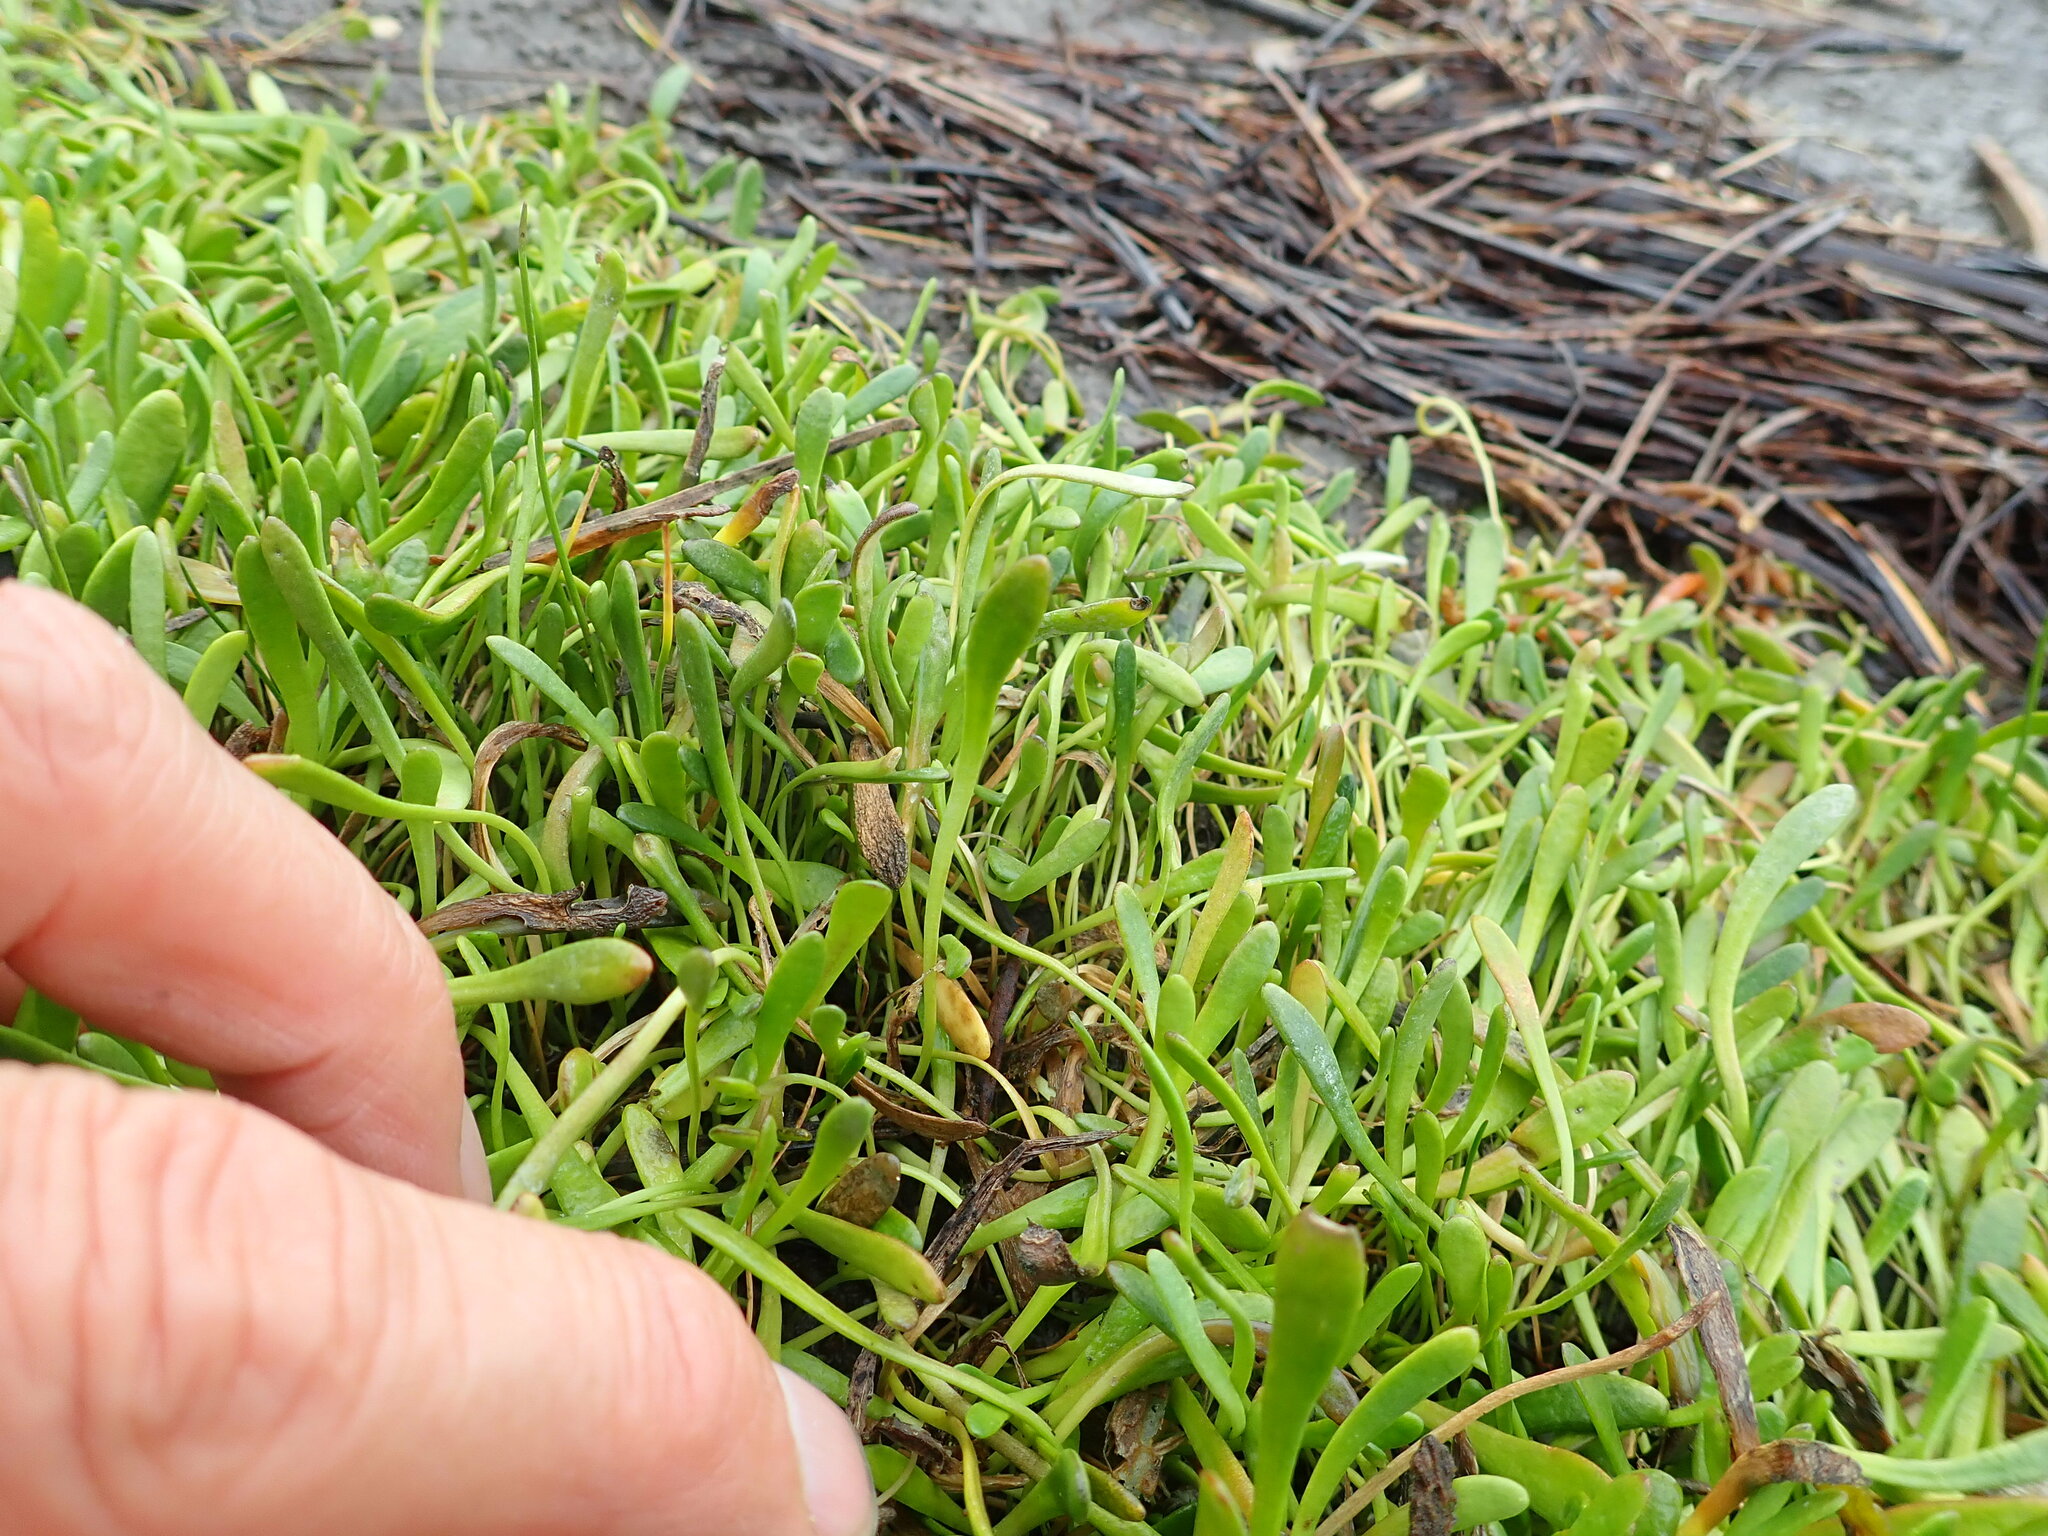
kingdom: Plantae
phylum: Tracheophyta
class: Magnoliopsida
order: Asterales
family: Goodeniaceae
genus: Goodenia
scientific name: Goodenia radicans
